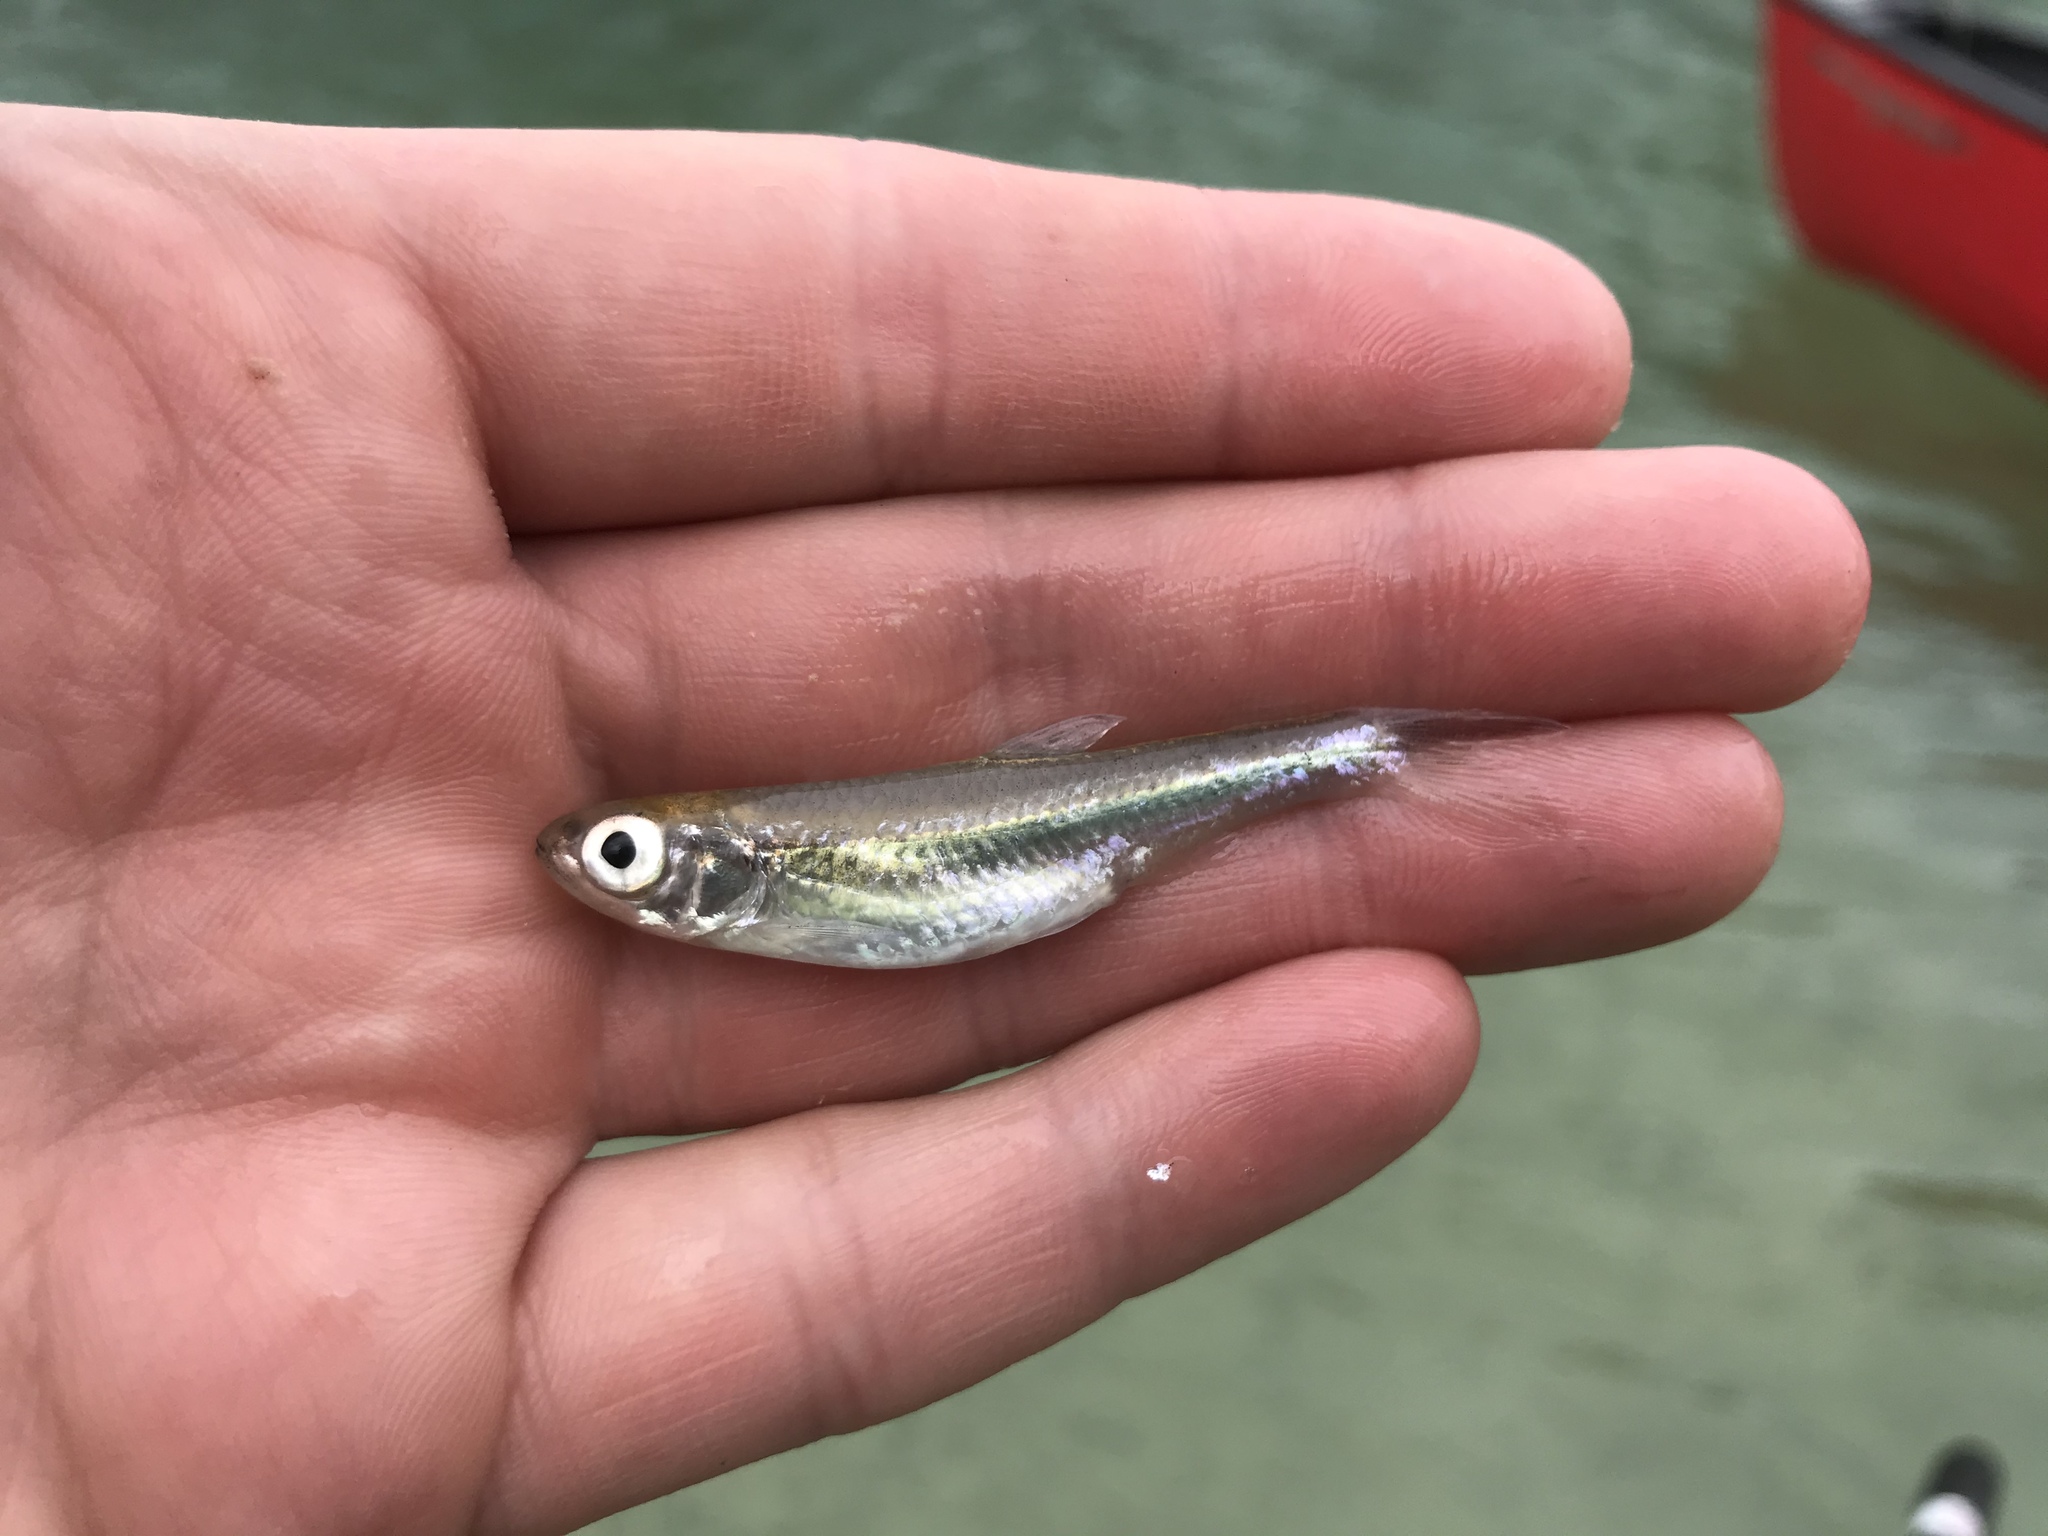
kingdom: Animalia
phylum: Chordata
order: Cypriniformes
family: Cyprinidae
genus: Notropis
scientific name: Notropis amabilis
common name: Texas shiner
